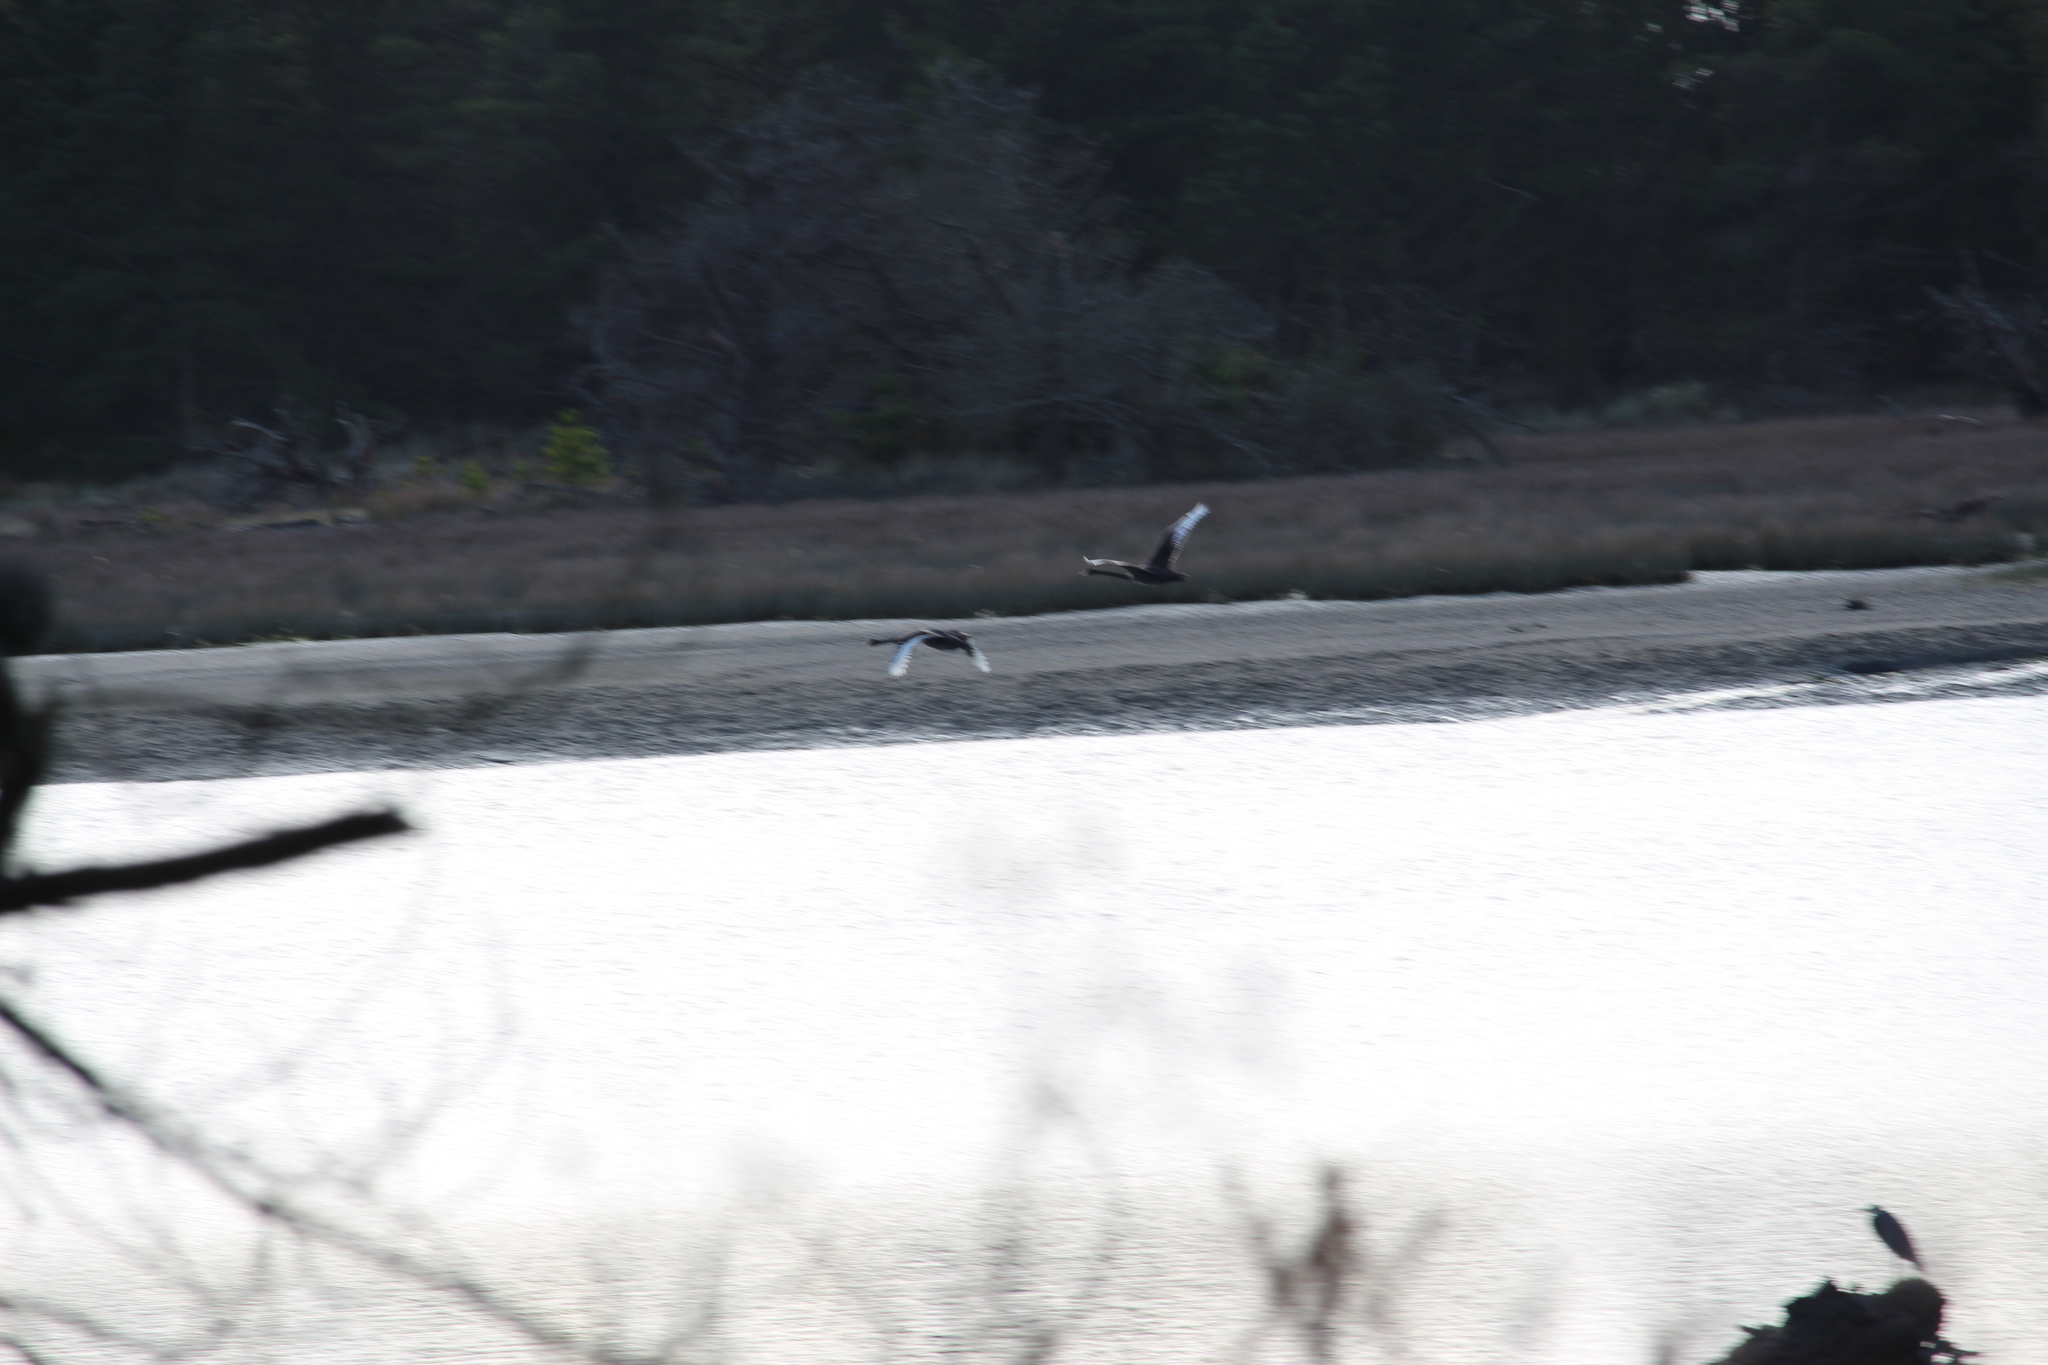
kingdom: Animalia
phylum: Chordata
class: Aves
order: Anseriformes
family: Anatidae
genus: Cygnus
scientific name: Cygnus atratus
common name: Black swan
